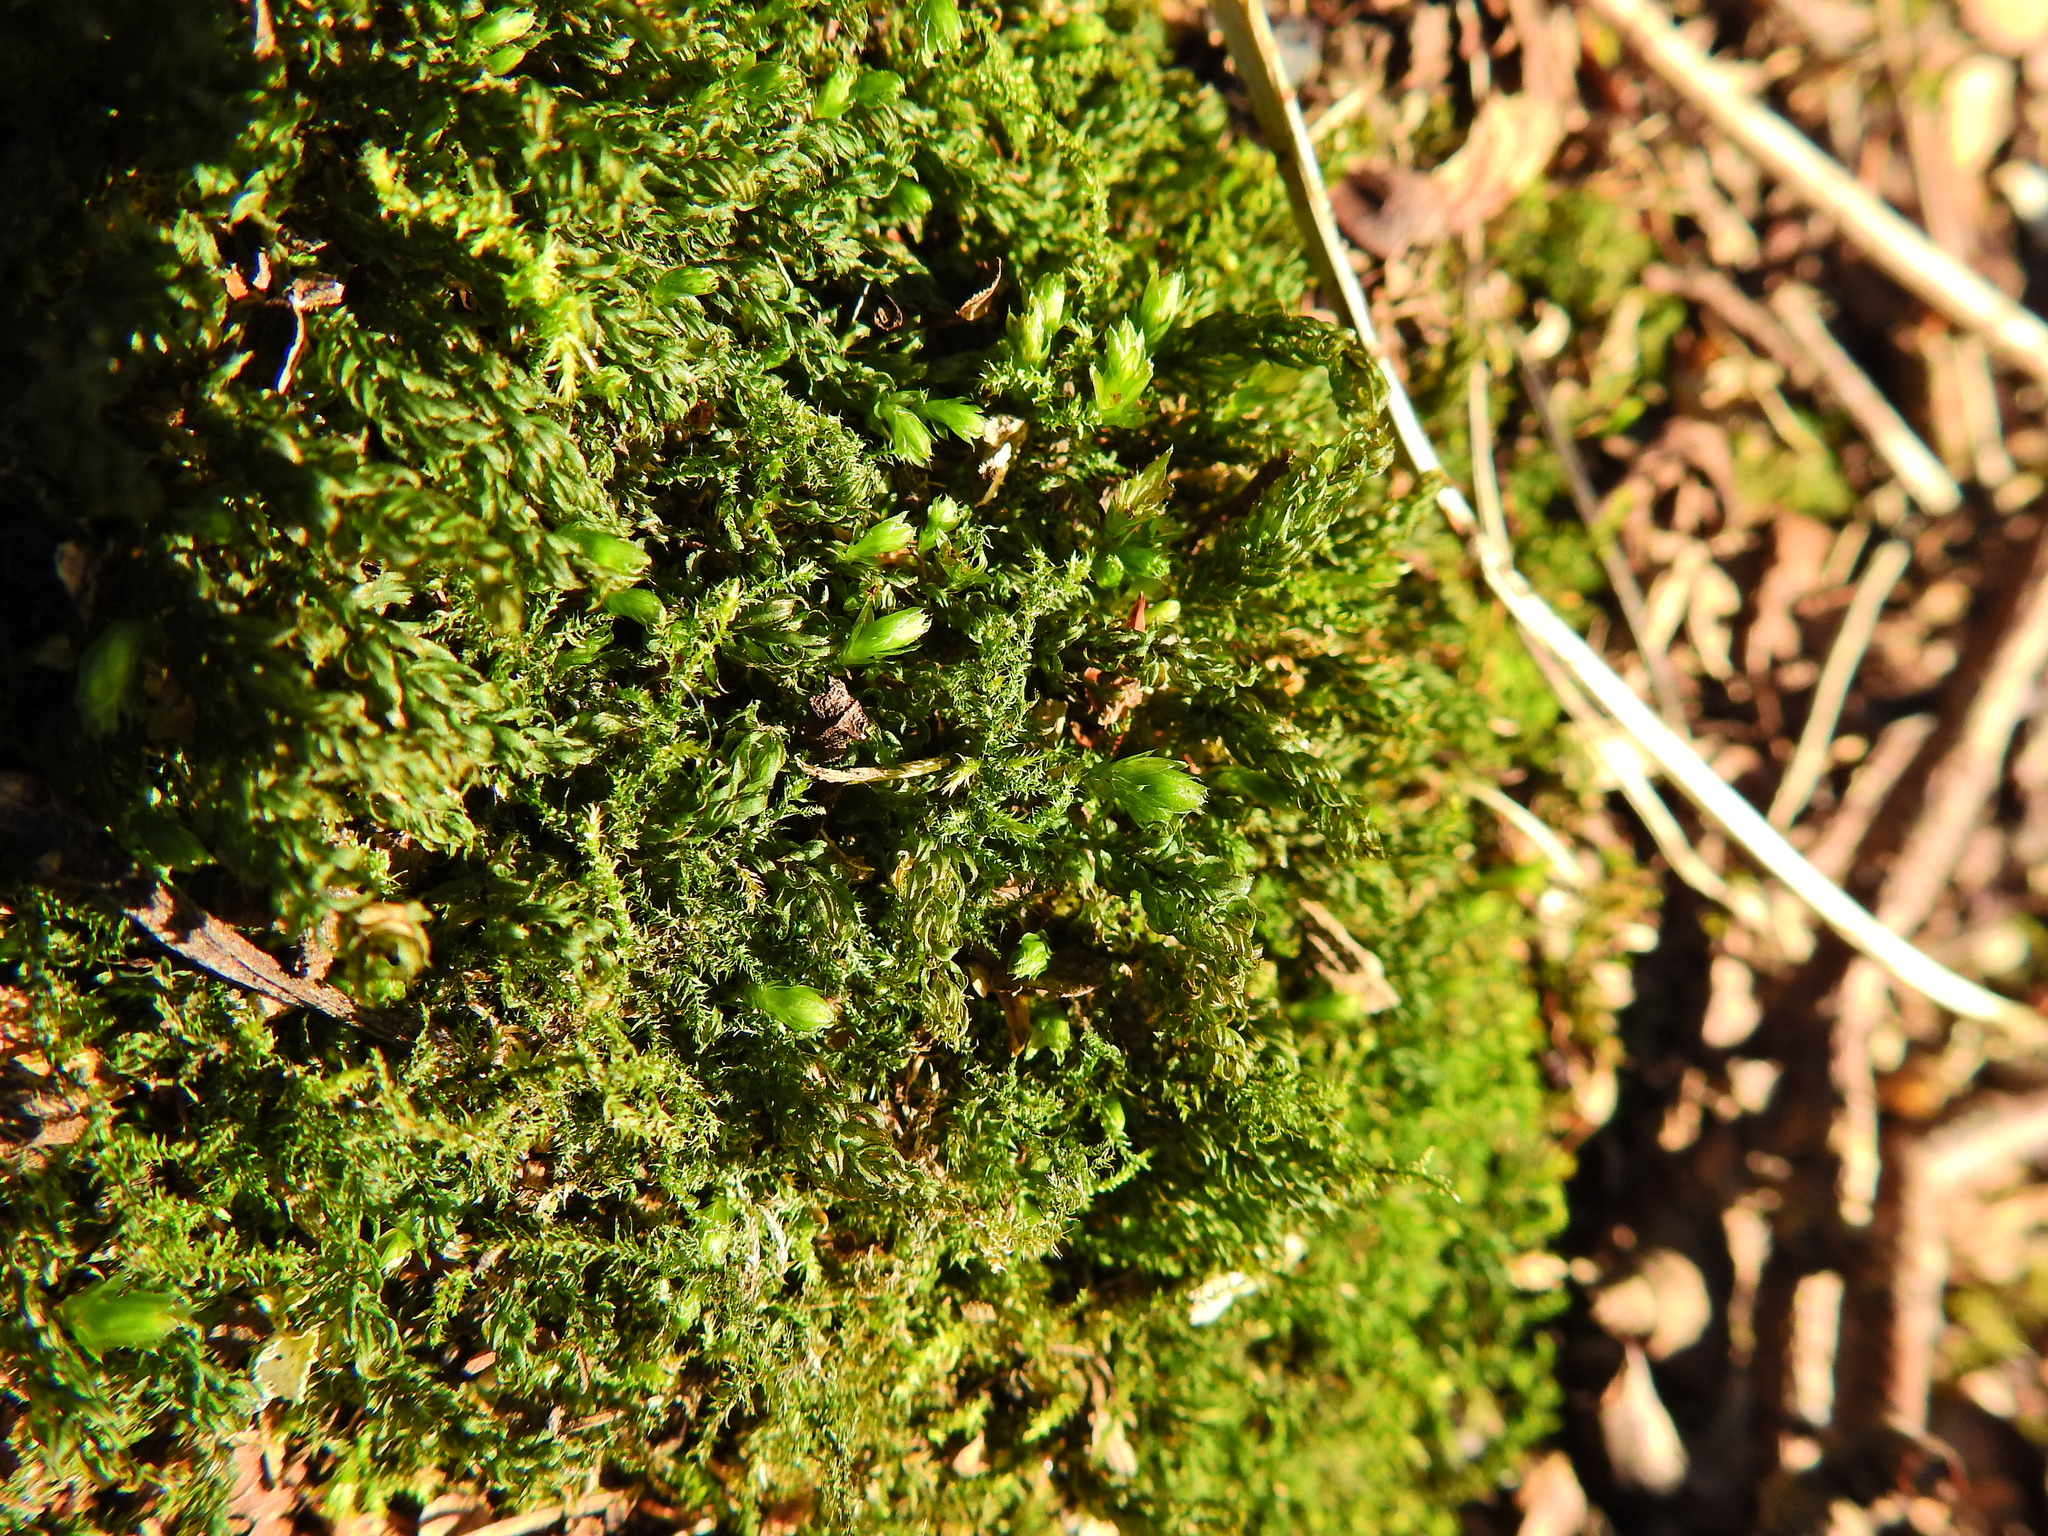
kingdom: Plantae
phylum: Bryophyta
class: Bryopsida
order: Bryales
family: Mniaceae
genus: Mnium
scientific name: Mnium hornum
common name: Swan's-neck leafy moss
